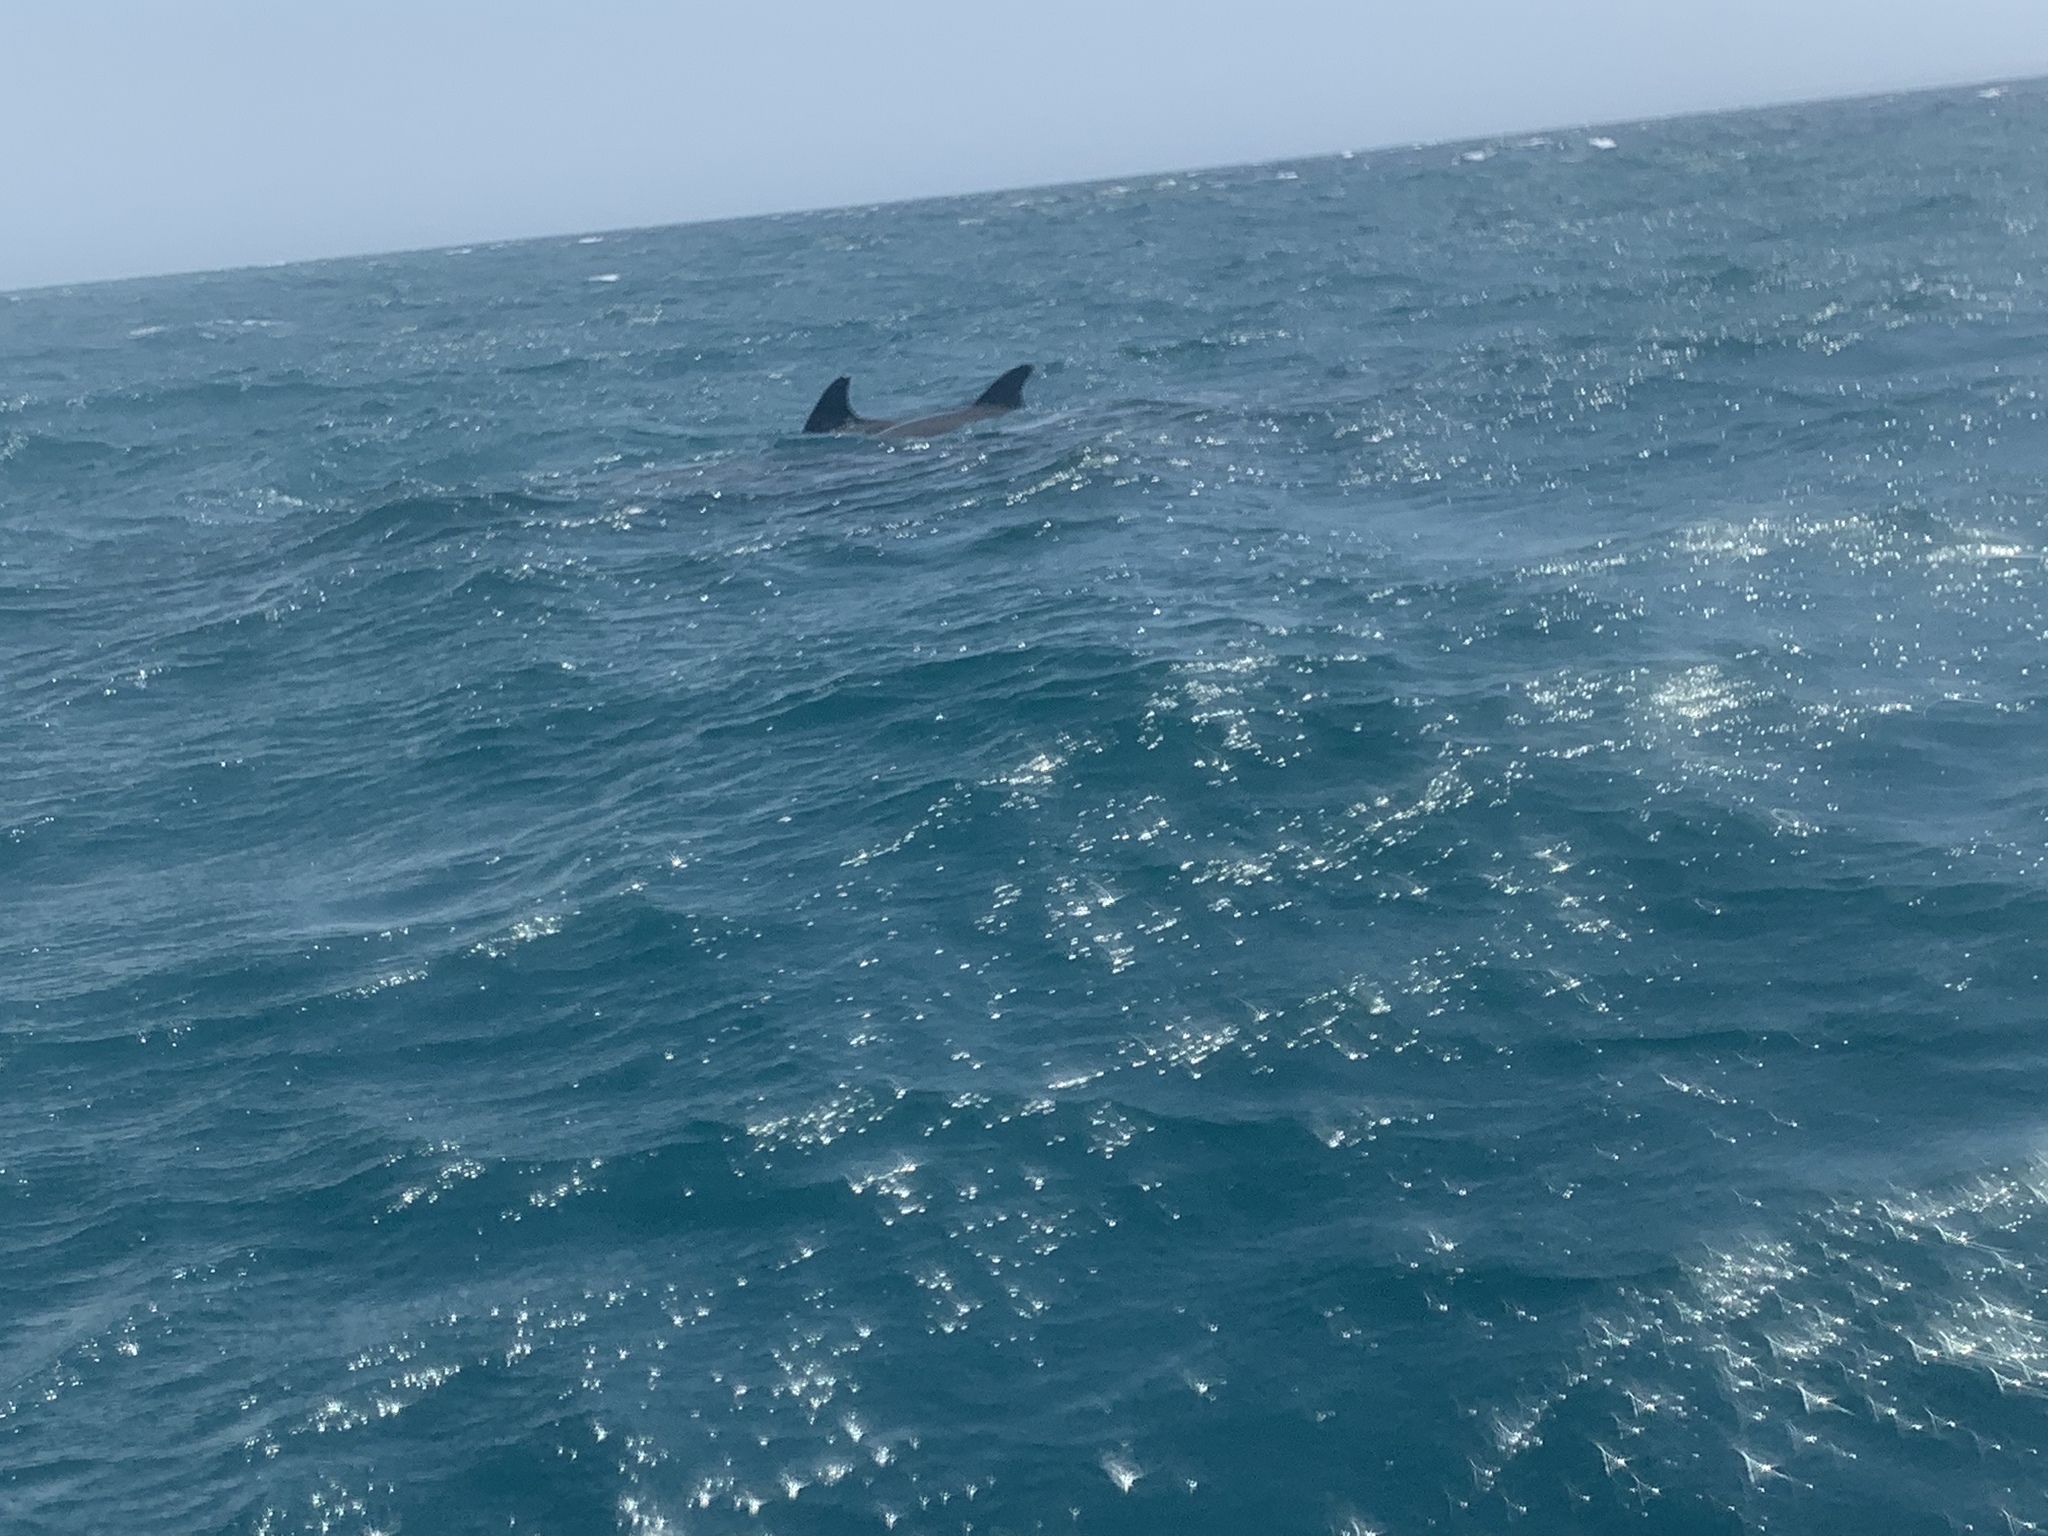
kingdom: Animalia
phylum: Chordata
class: Mammalia
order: Cetacea
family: Delphinidae
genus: Tursiops
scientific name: Tursiops truncatus
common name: Bottlenose dolphin
